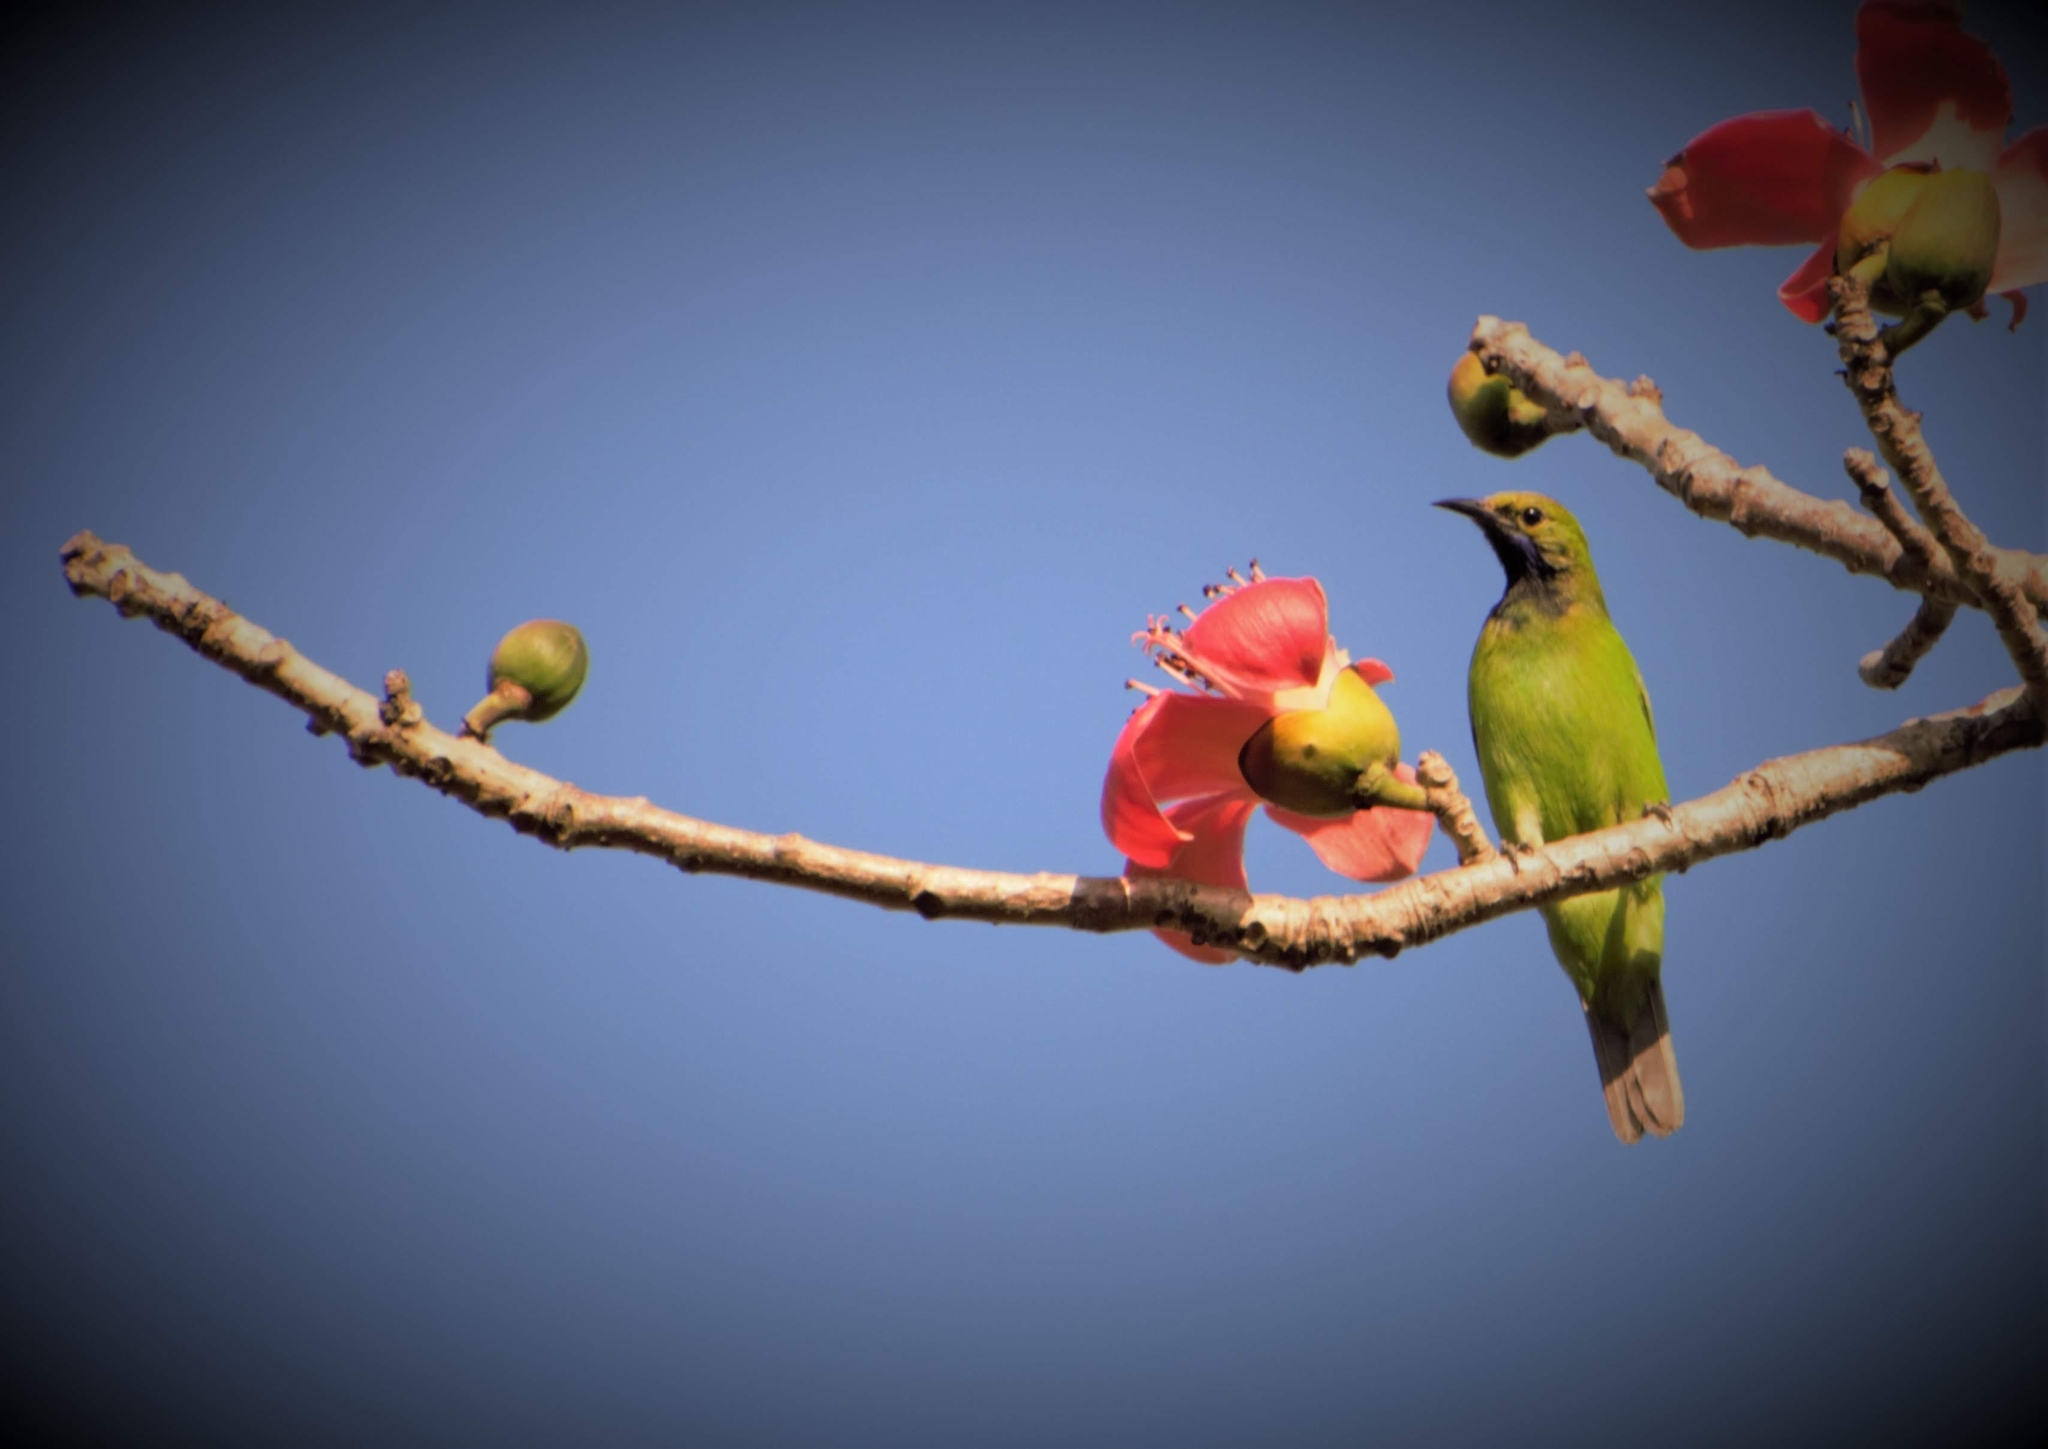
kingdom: Animalia
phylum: Chordata
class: Aves
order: Passeriformes
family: Chloropseidae
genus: Chloropsis
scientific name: Chloropsis aurifrons
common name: Golden-fronted leafbird
